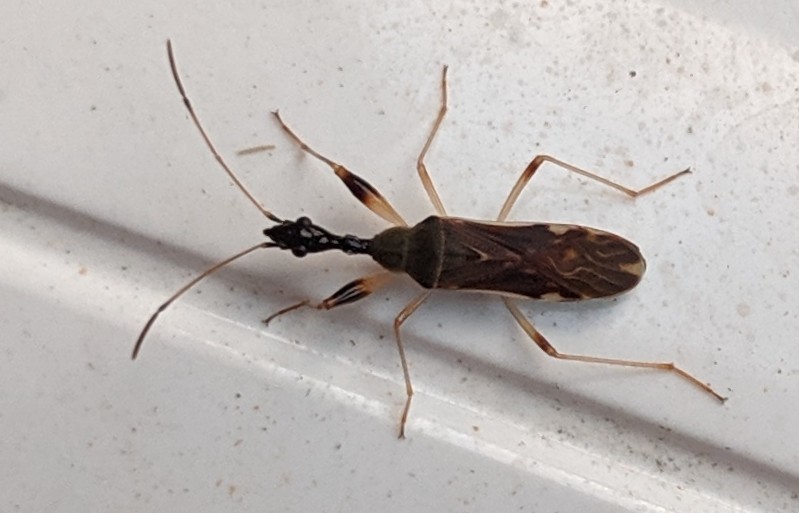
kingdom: Animalia
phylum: Arthropoda
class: Insecta
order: Hemiptera
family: Rhyparochromidae
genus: Myodocha
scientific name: Myodocha serripes
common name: Long-necked seed bug
